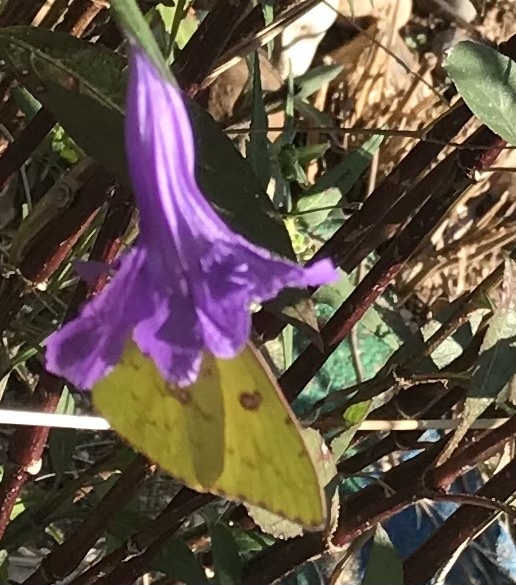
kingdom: Animalia
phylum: Arthropoda
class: Insecta
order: Lepidoptera
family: Pieridae
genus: Phoebis
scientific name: Phoebis sennae
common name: Cloudless sulphur
